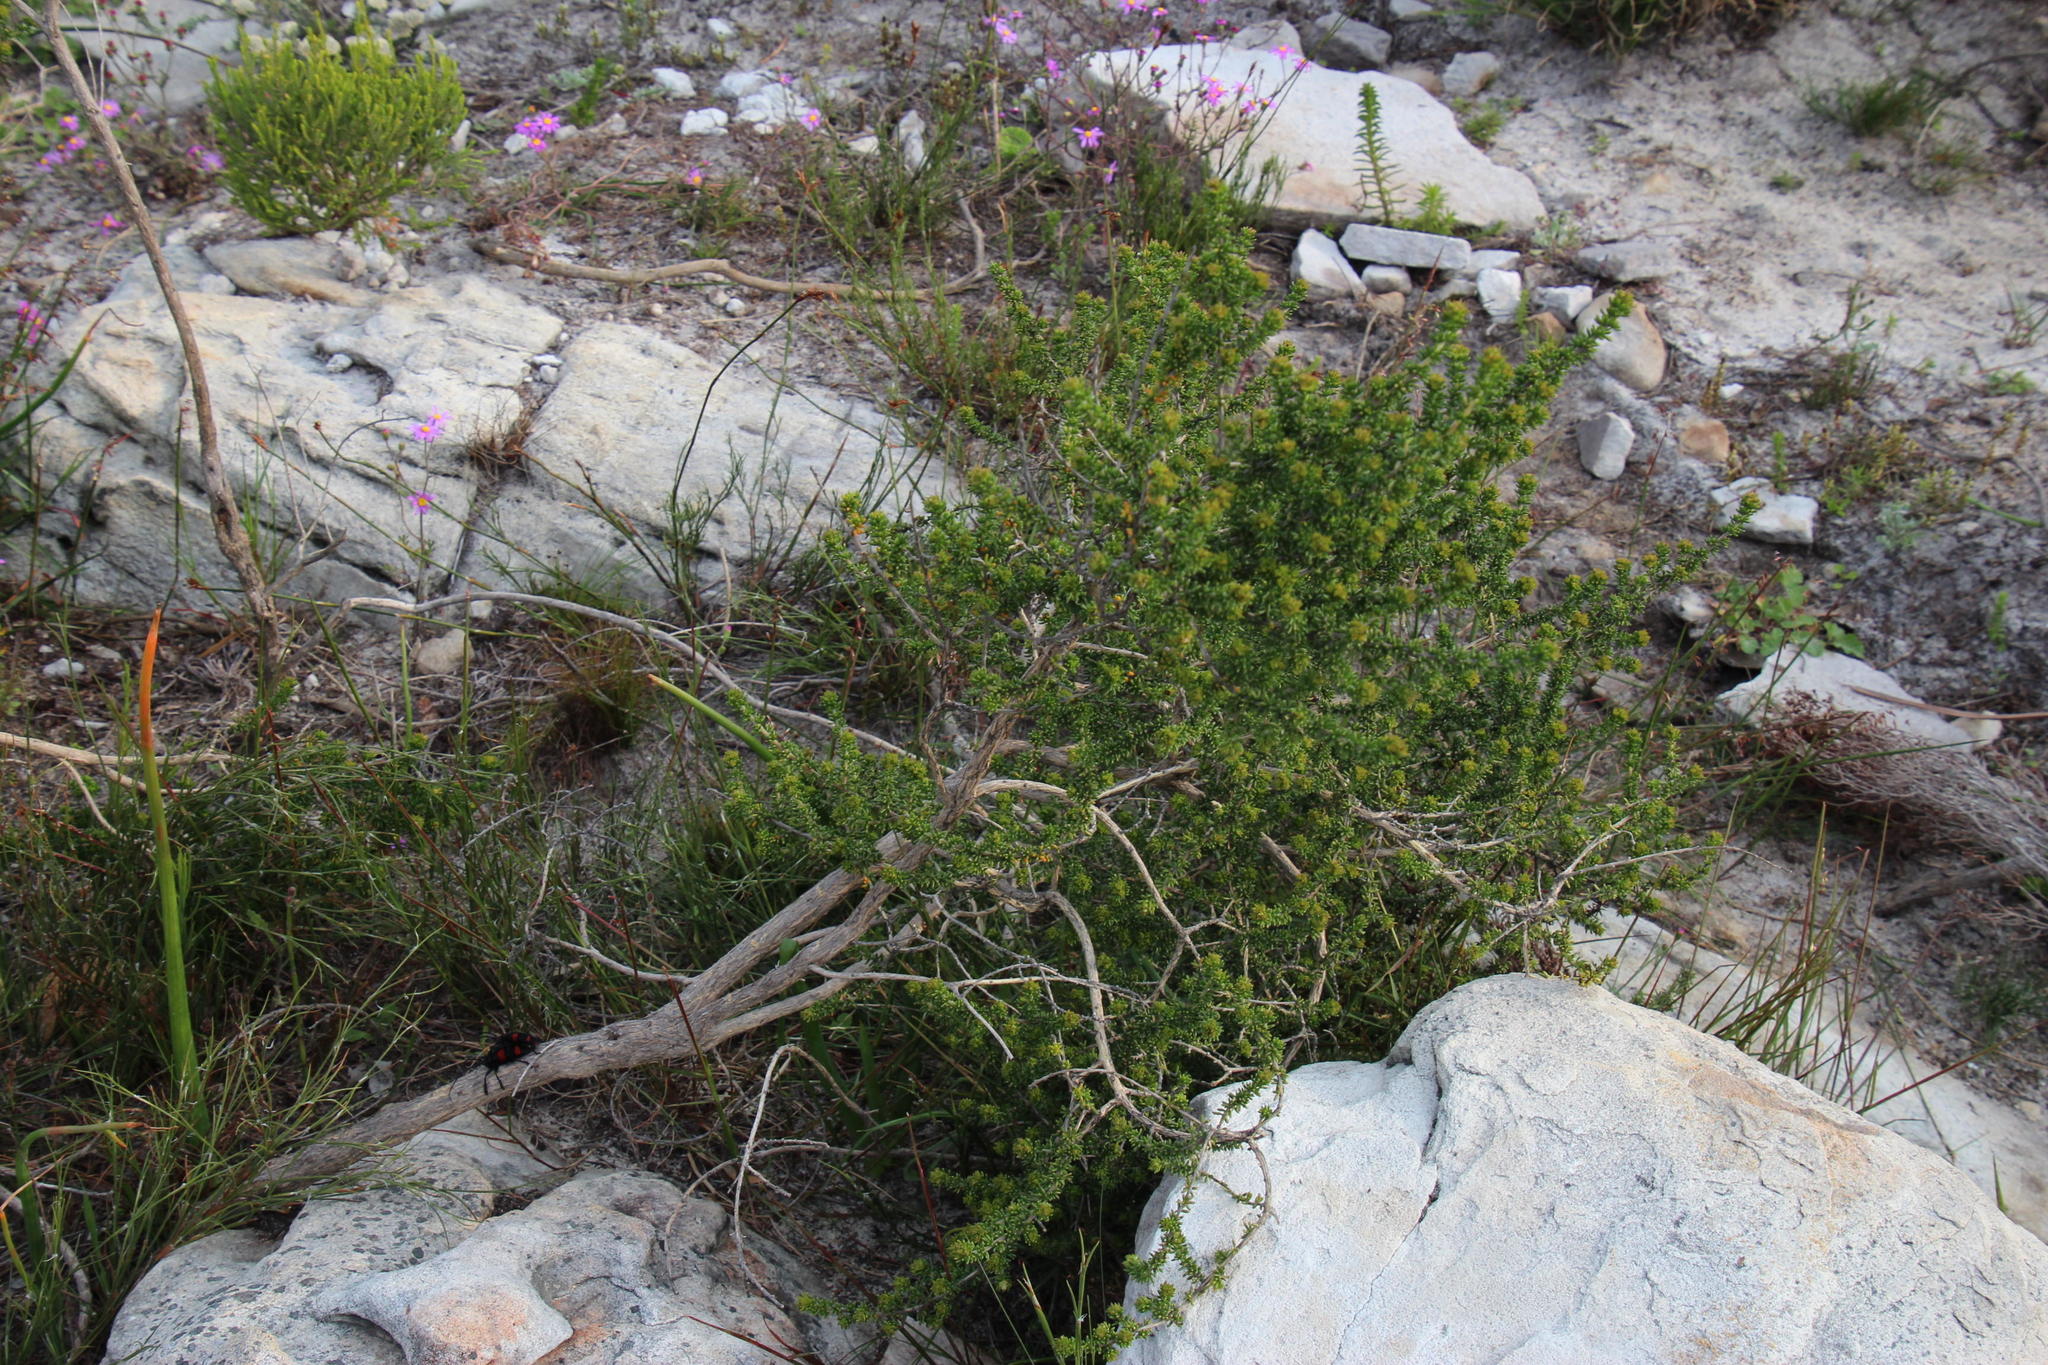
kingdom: Plantae
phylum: Tracheophyta
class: Magnoliopsida
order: Fabales
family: Fabaceae
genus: Aspalathus
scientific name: Aspalathus capensis
